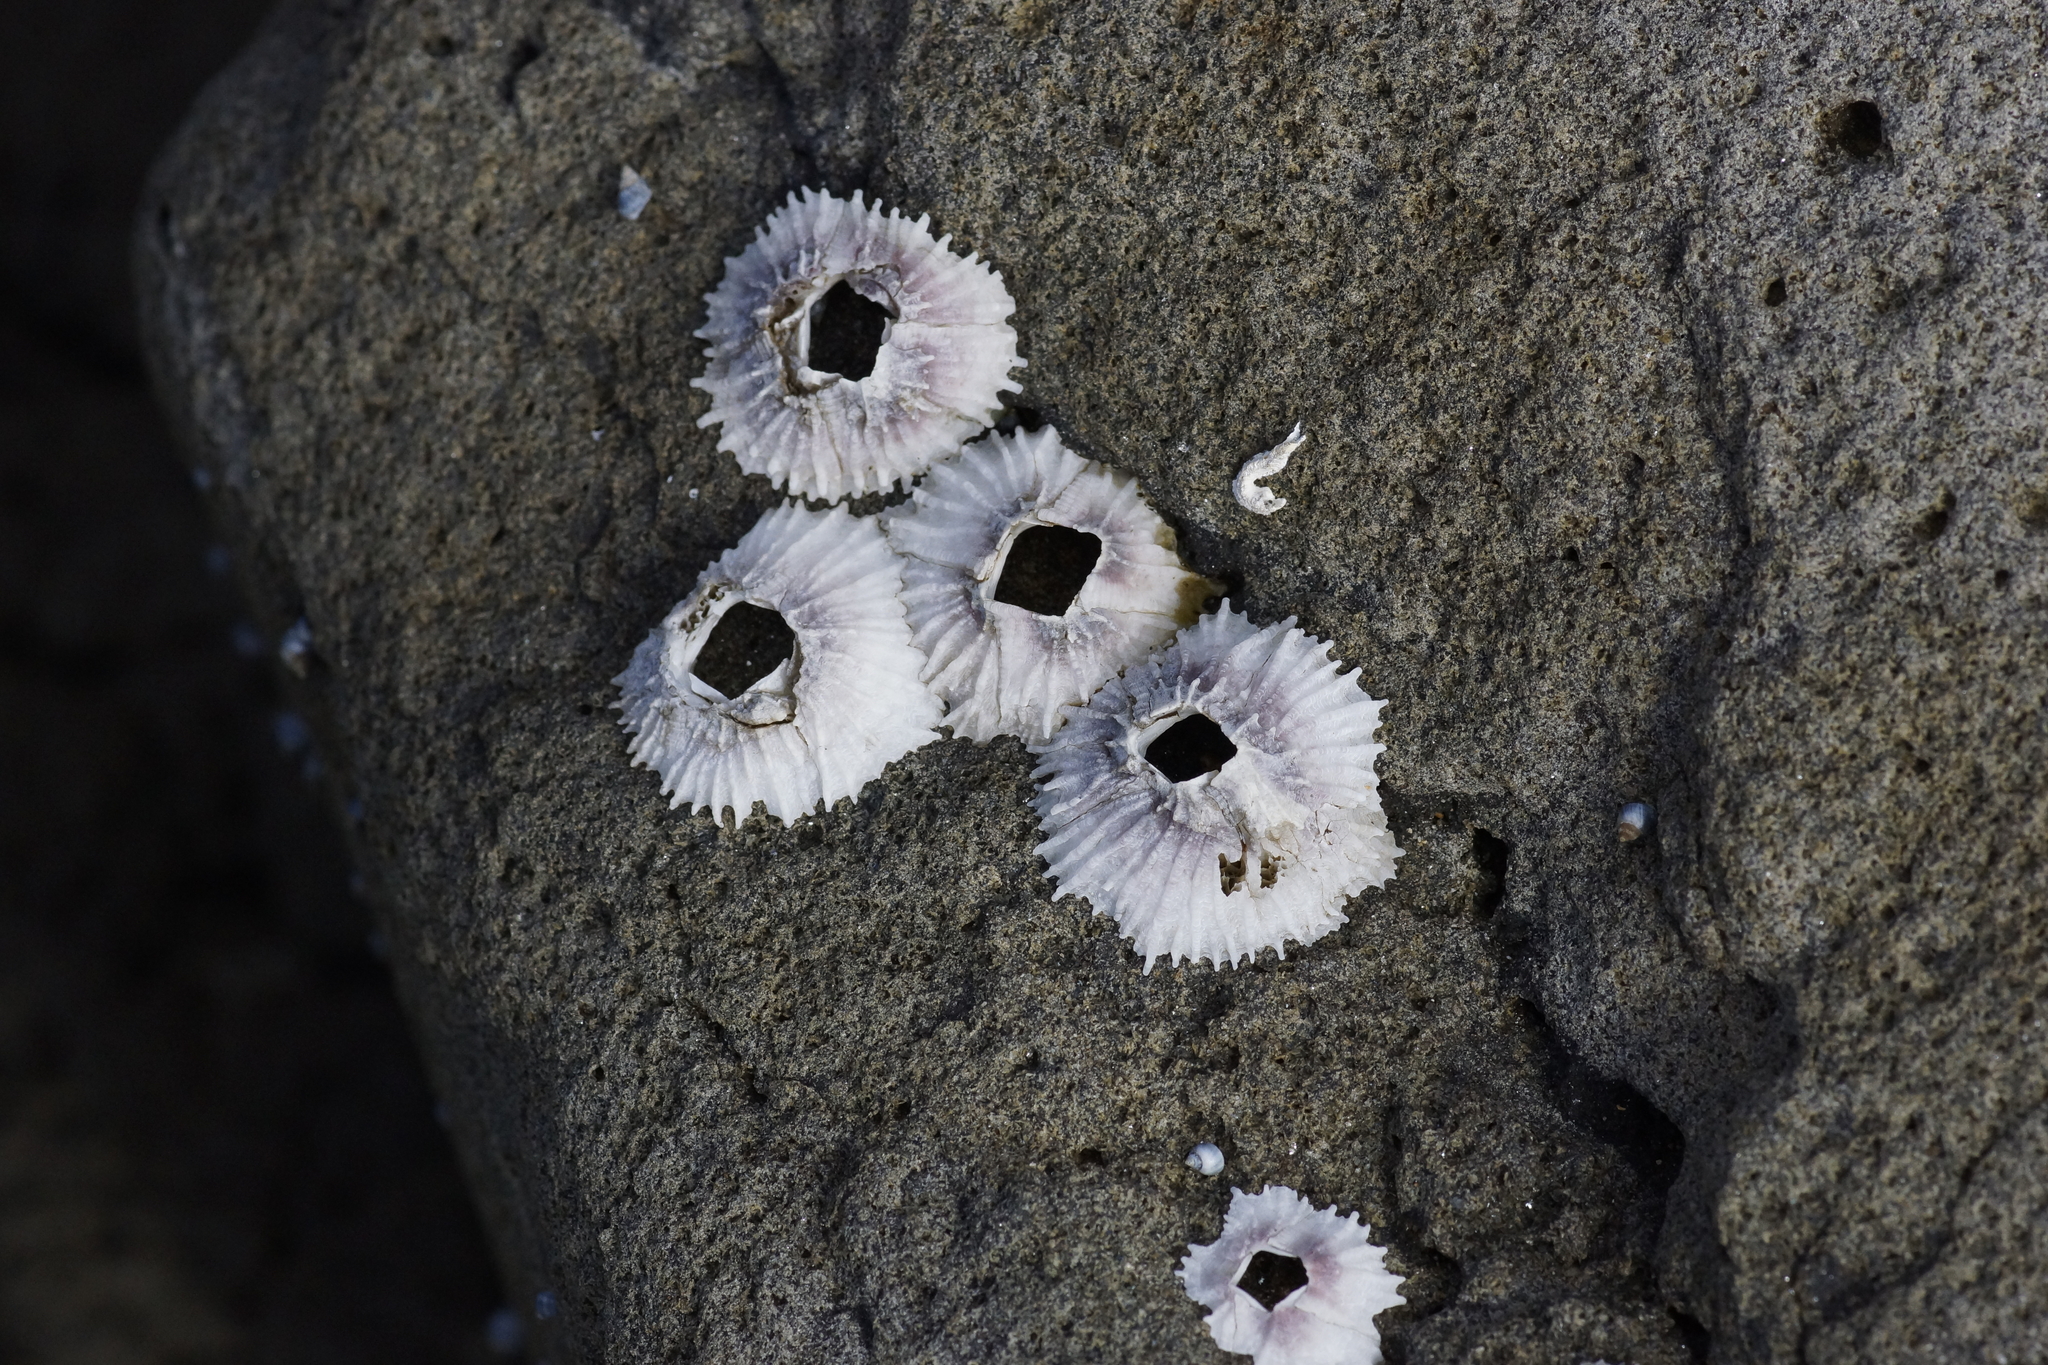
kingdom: Animalia
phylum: Arthropoda
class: Maxillopoda
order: Sessilia
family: Tetraclitidae
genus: Tetraclitella
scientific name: Tetraclitella purpurascens
